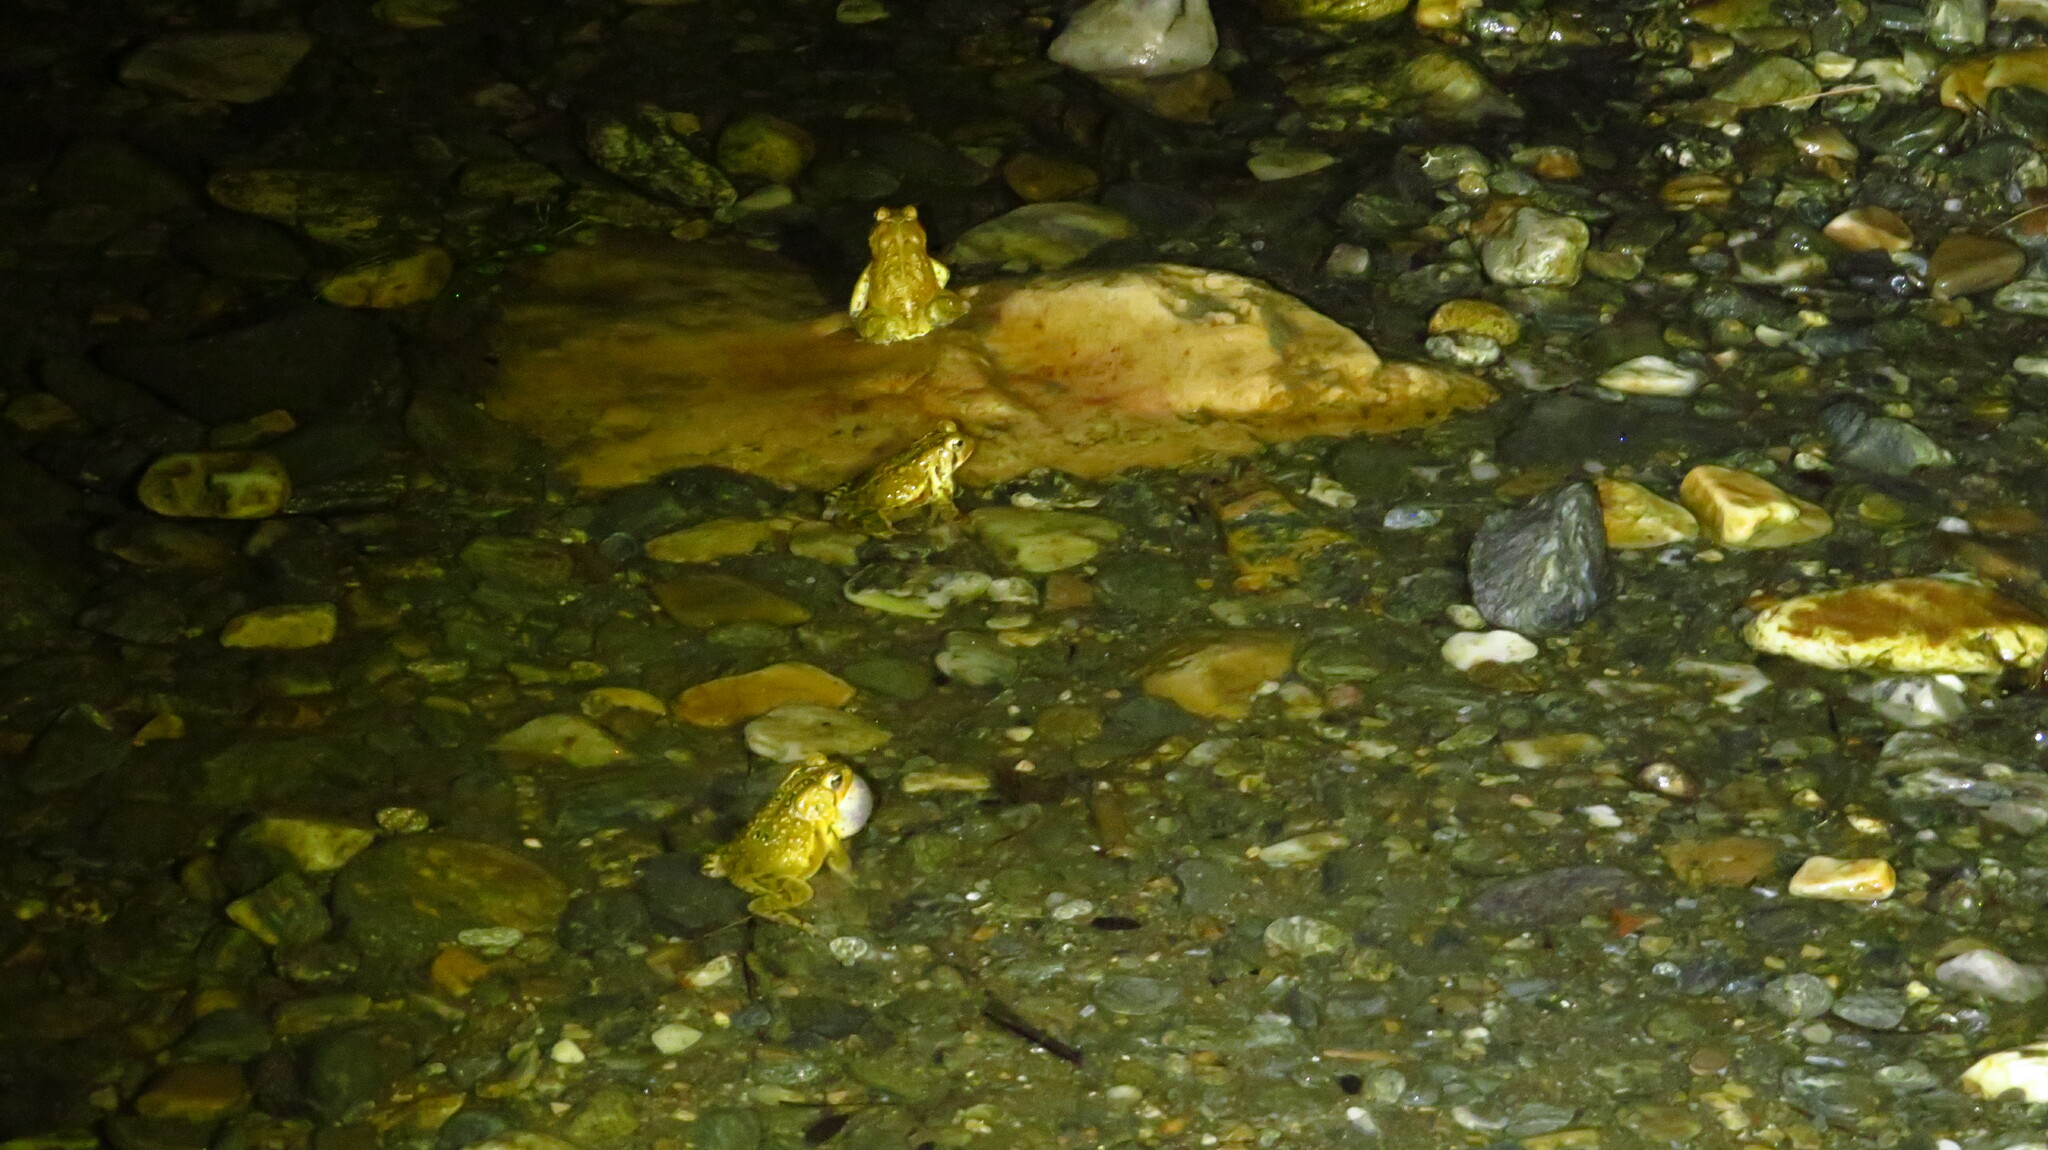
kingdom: Animalia
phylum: Chordata
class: Amphibia
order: Anura
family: Bufonidae
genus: Anaxyrus
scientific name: Anaxyrus americanus
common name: American toad
